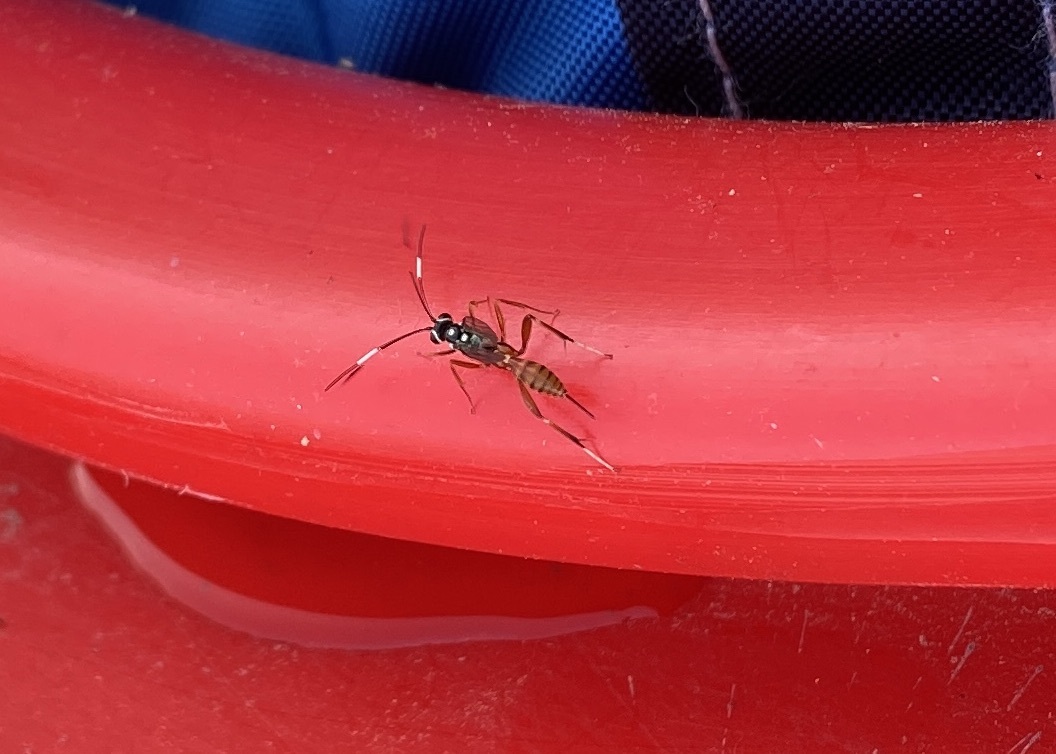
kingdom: Animalia
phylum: Arthropoda
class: Insecta
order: Hymenoptera
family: Ichneumonidae
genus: Messatoporus
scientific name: Messatoporus rufiventris
